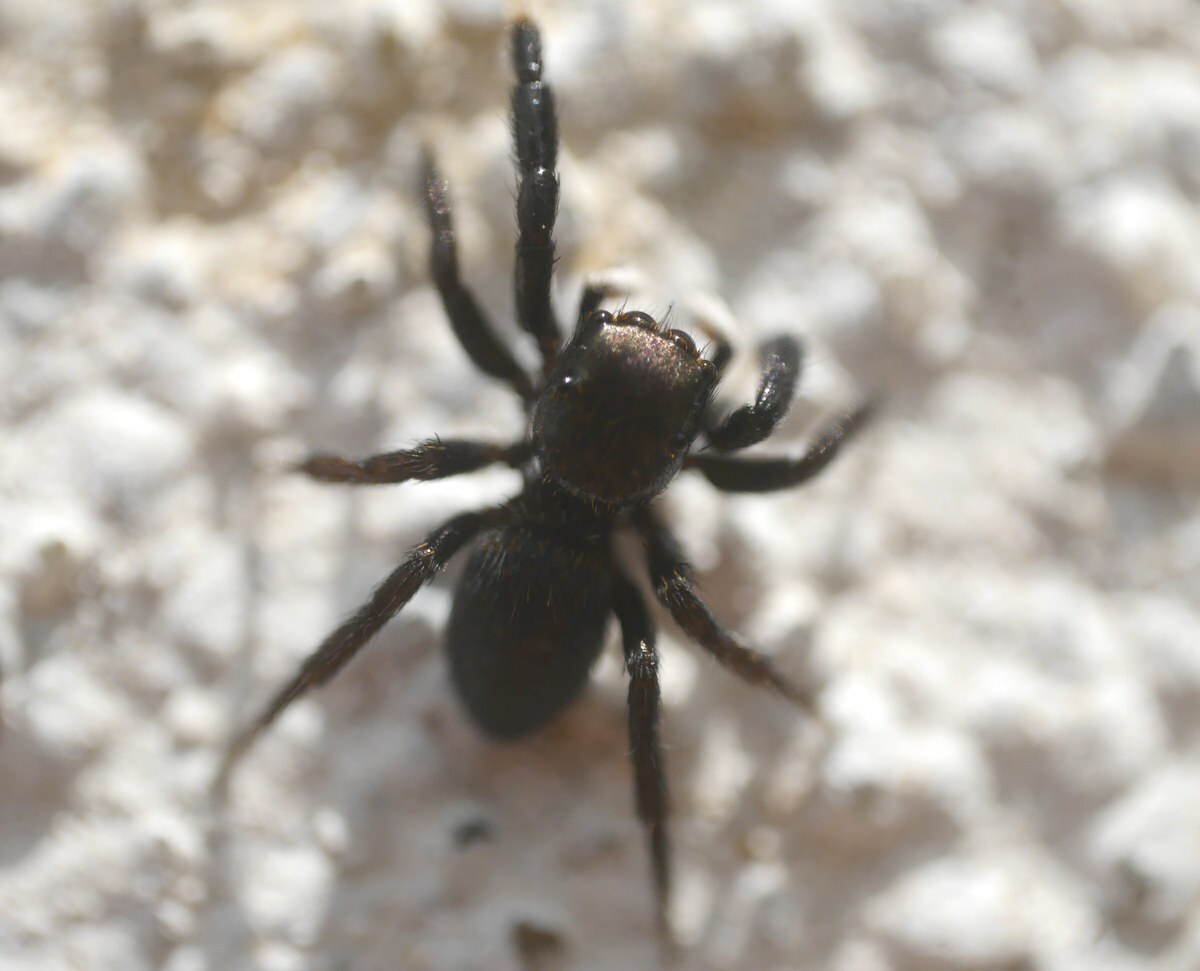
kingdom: Animalia
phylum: Arthropoda
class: Arachnida
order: Araneae
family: Salticidae
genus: Euophrys
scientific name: Euophrys frontalis
